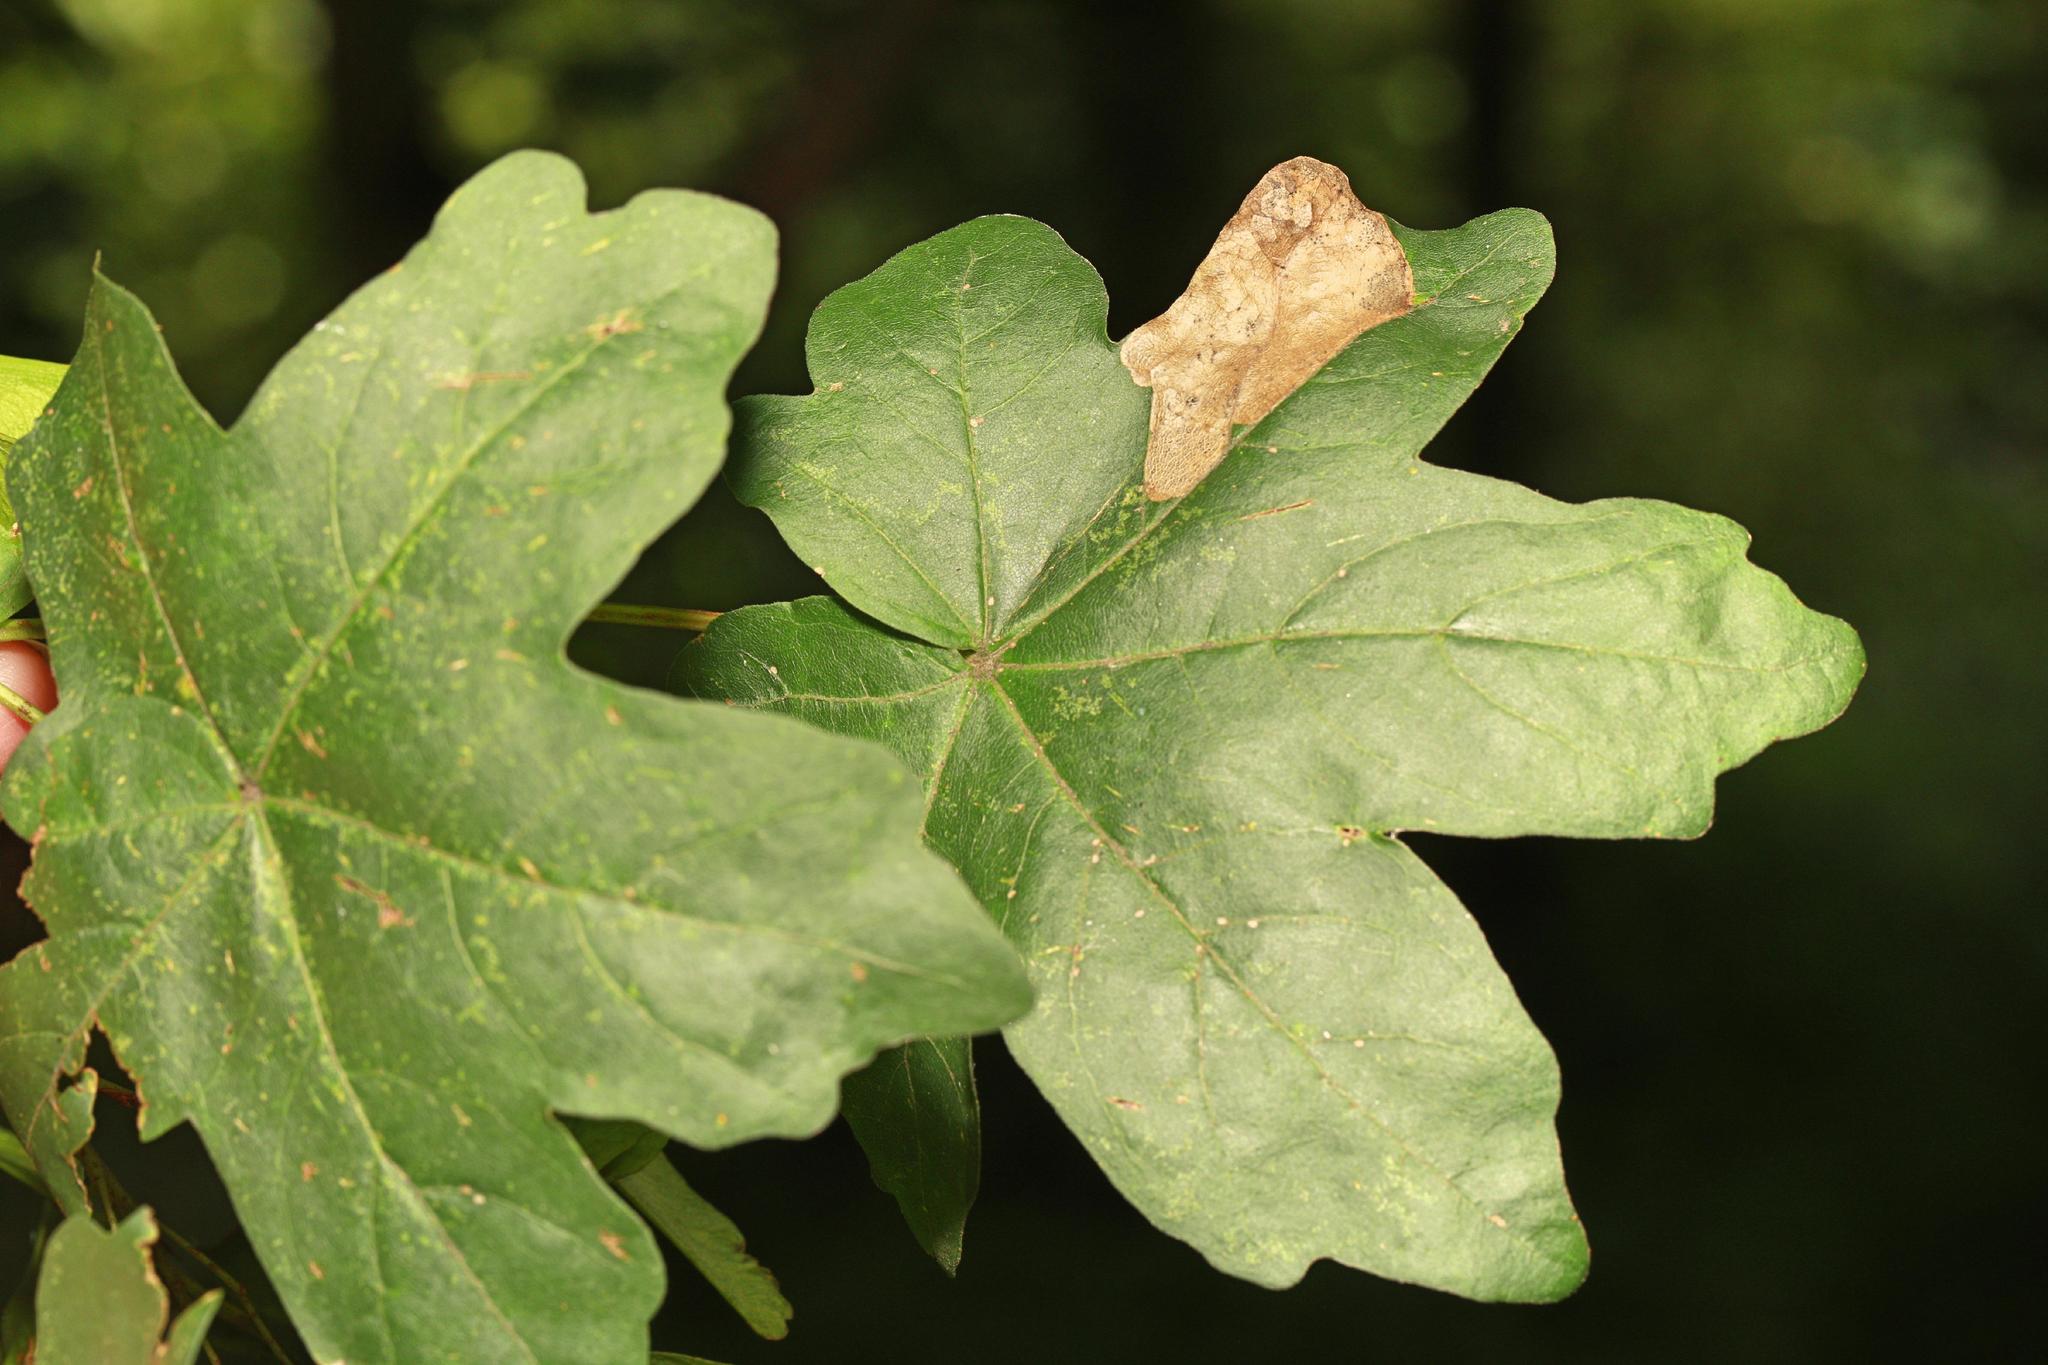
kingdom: Animalia
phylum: Arthropoda
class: Insecta
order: Hymenoptera
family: Tenthredinidae
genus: Heterarthrus
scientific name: Heterarthrus wuestneii
